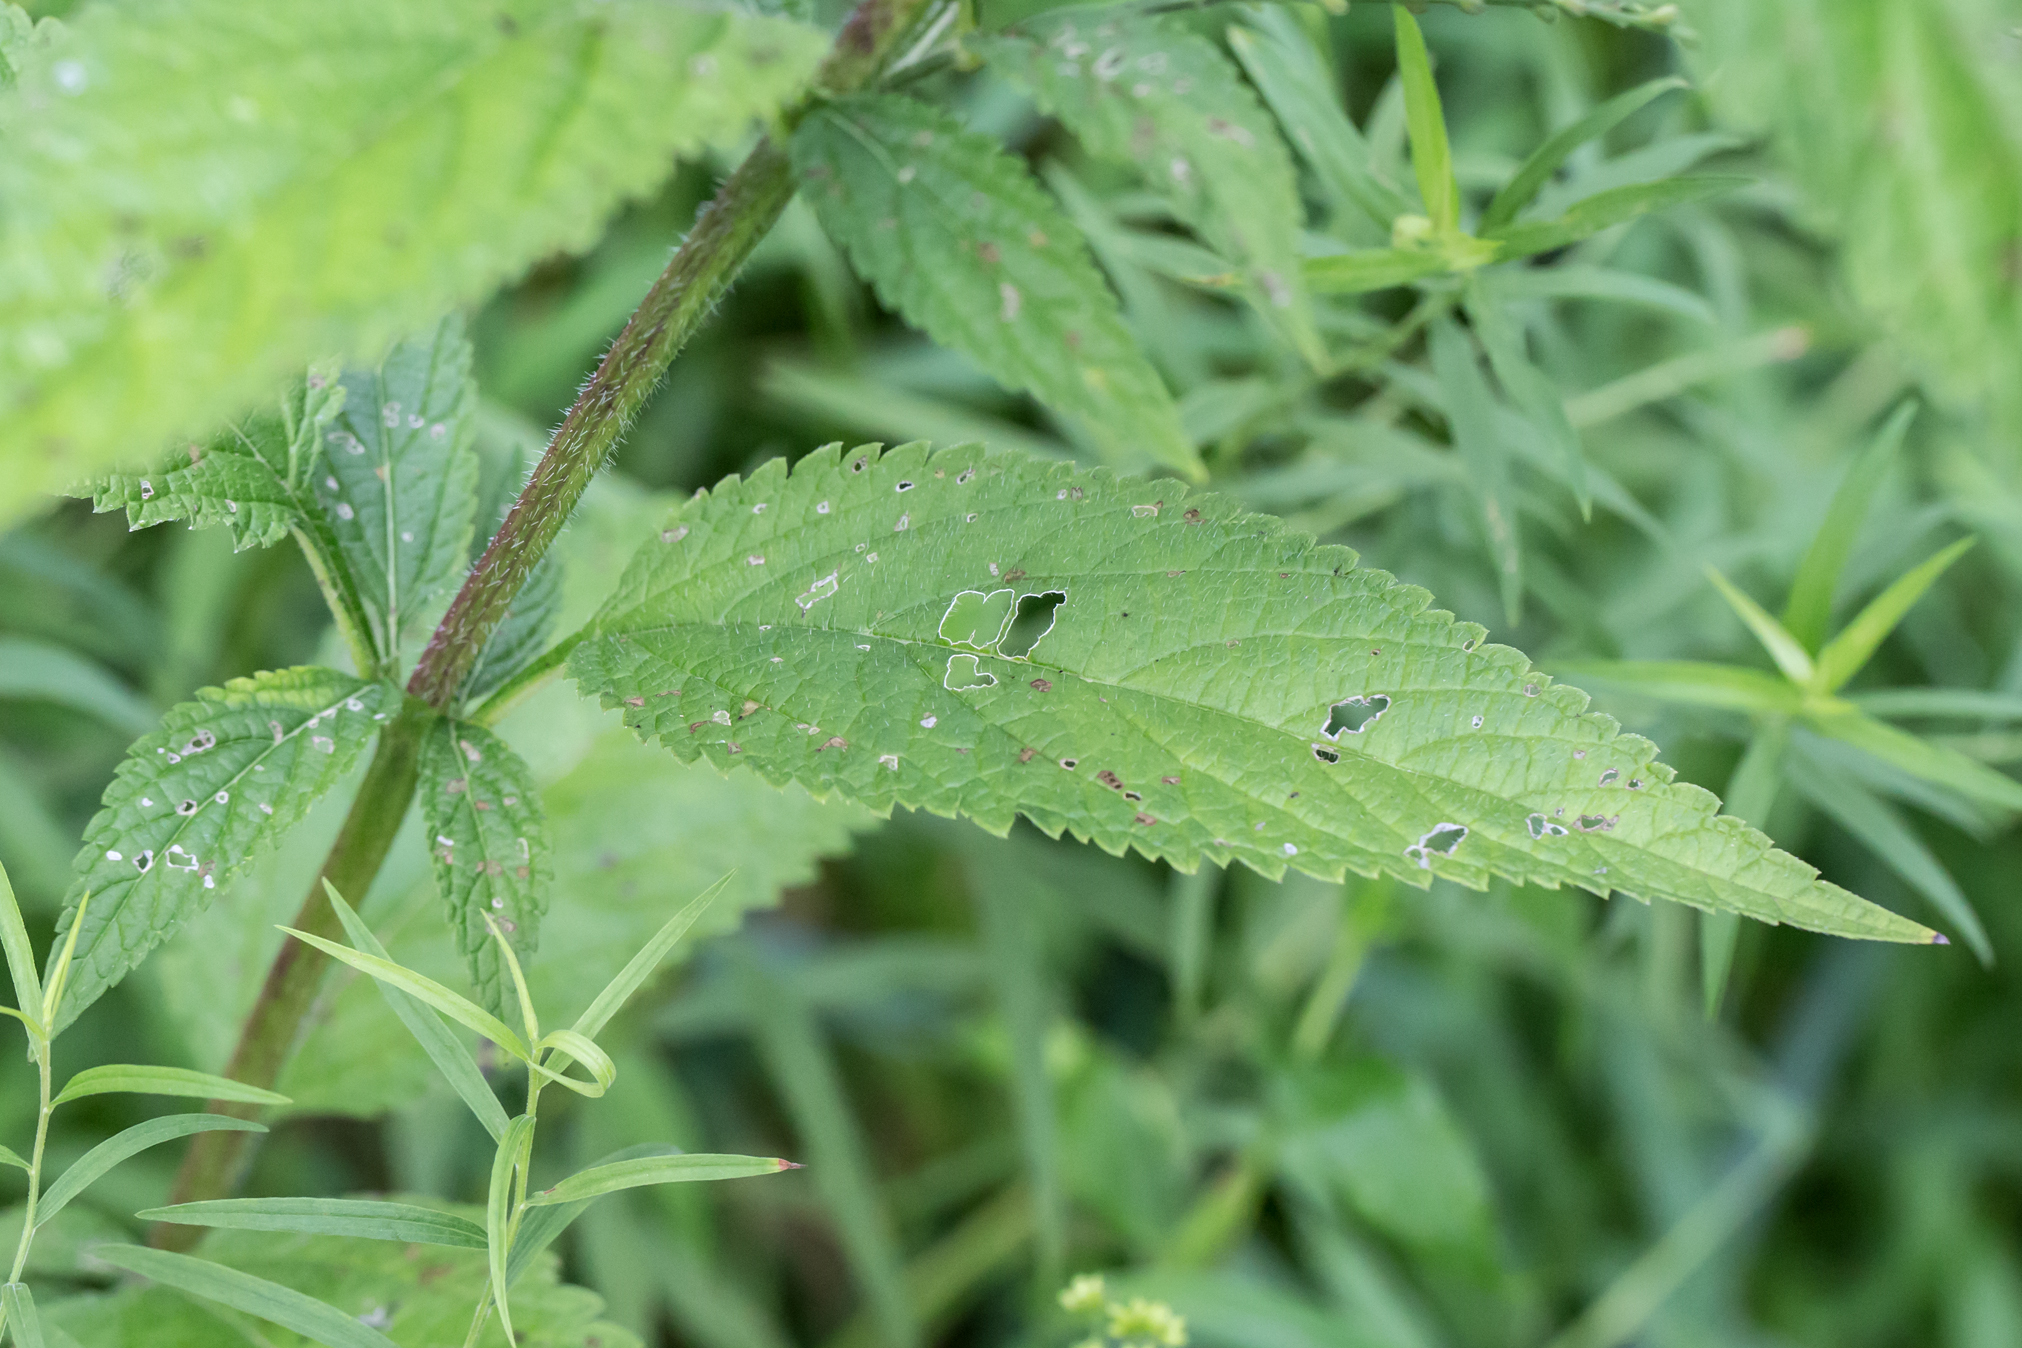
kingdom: Plantae
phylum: Tracheophyta
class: Magnoliopsida
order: Lamiales
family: Verbenaceae
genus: Verbena
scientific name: Verbena urticifolia
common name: Nettle-leaved vervain
